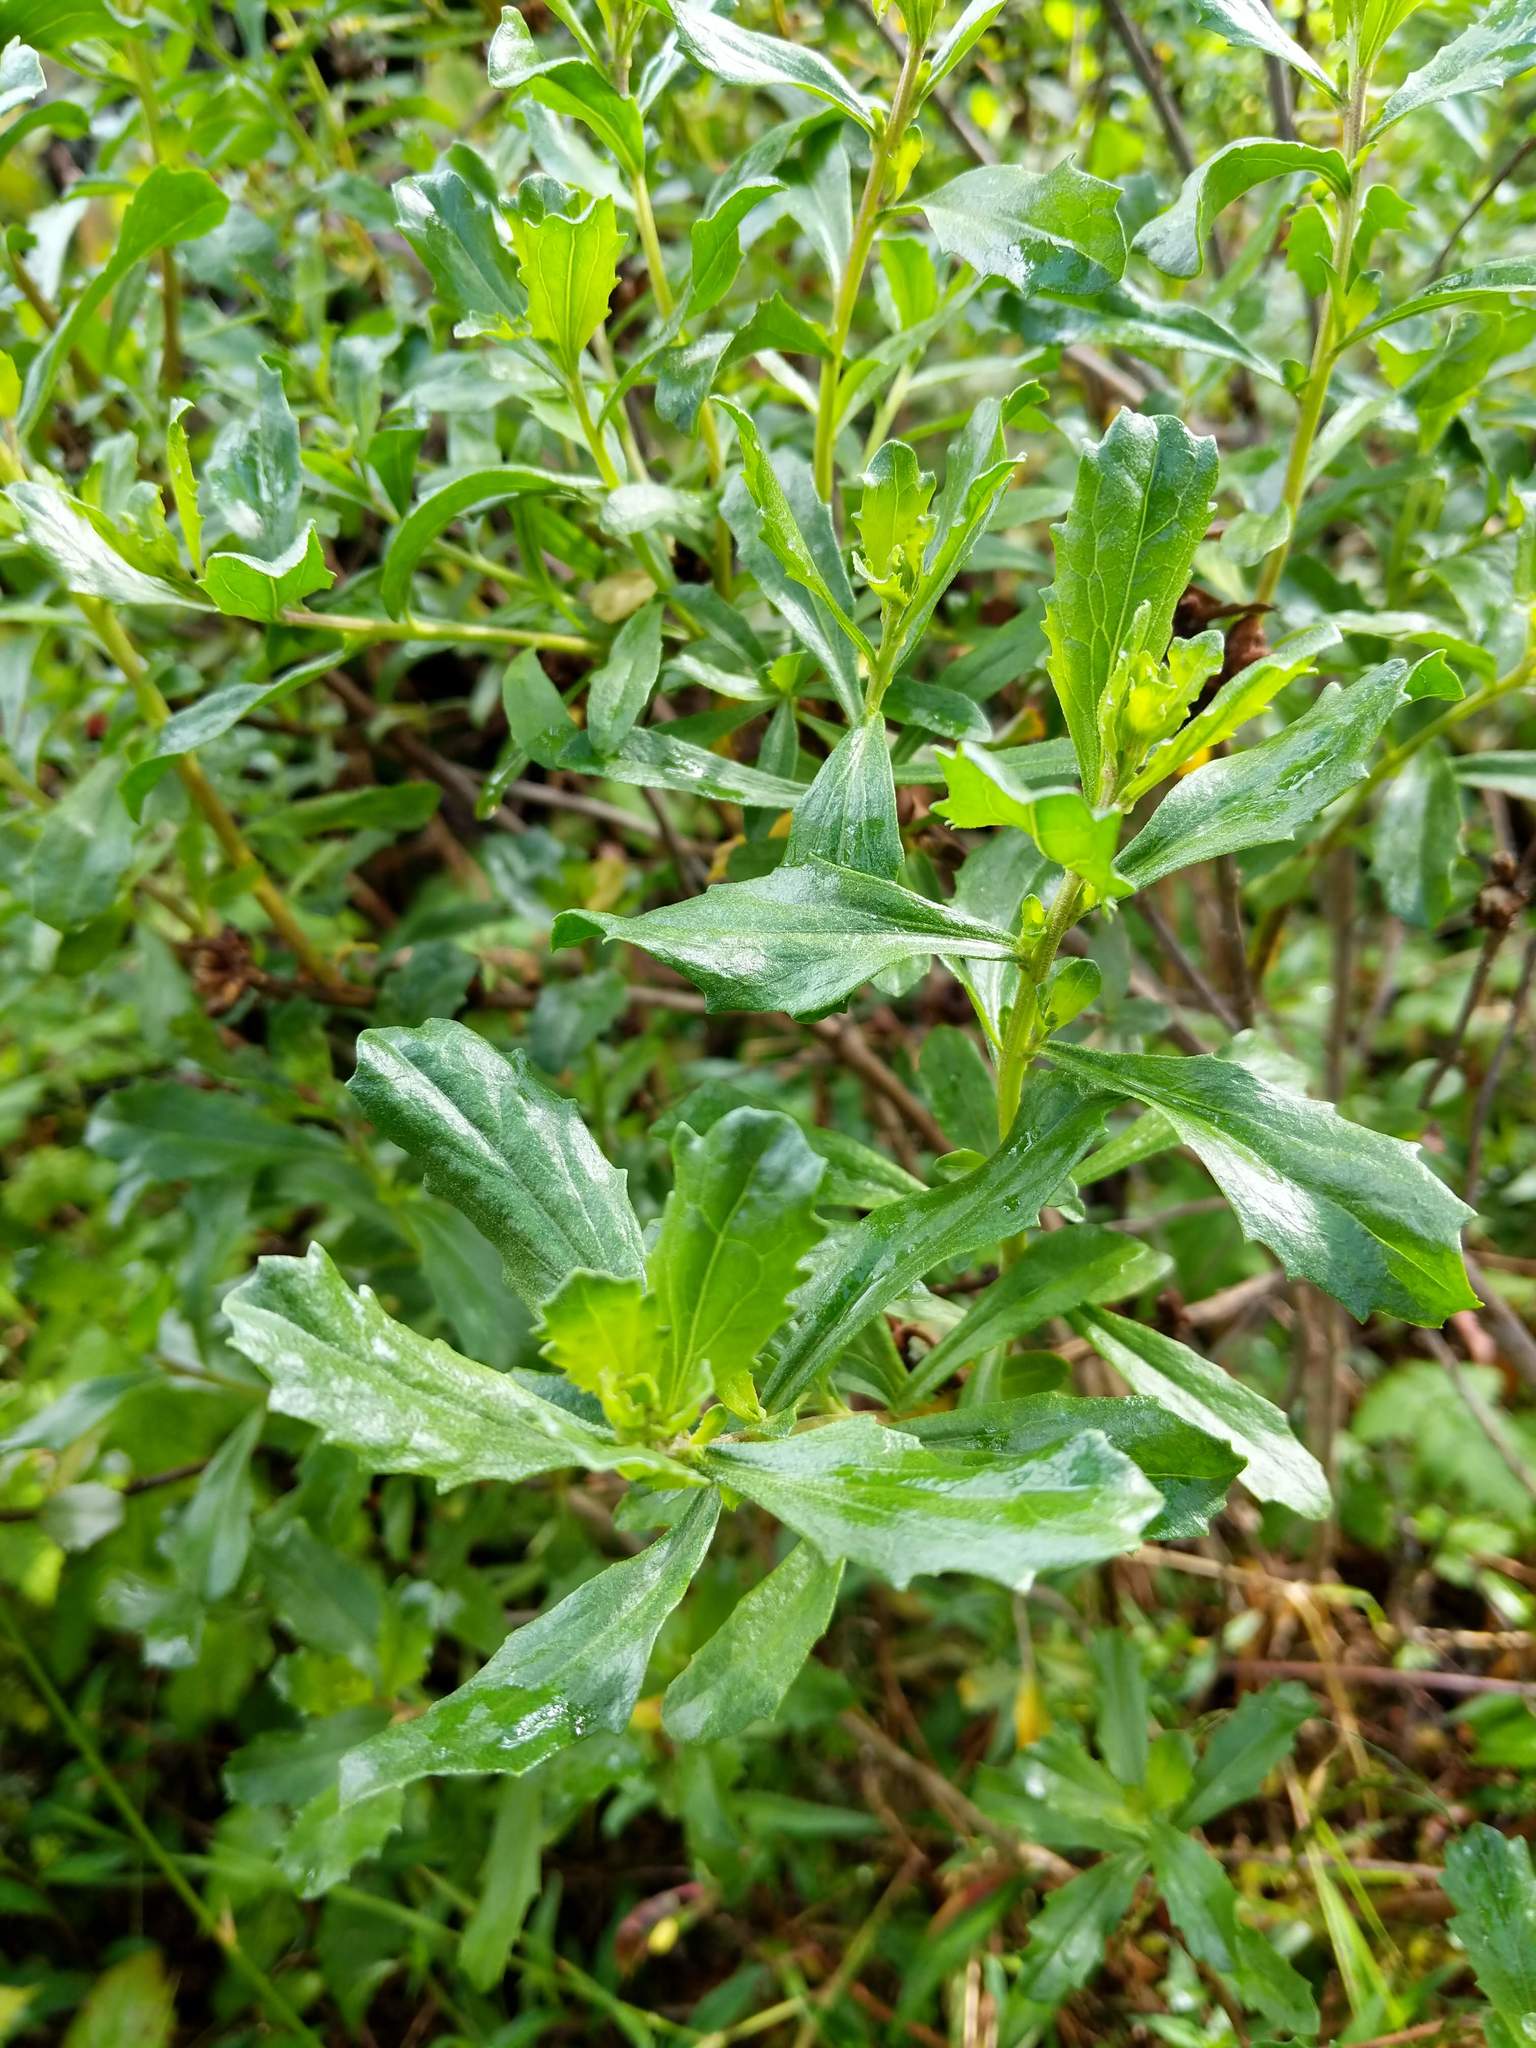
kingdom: Plantae
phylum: Tracheophyta
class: Magnoliopsida
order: Asterales
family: Asteraceae
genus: Baccharis
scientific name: Baccharis pilularis
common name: Coyotebrush
